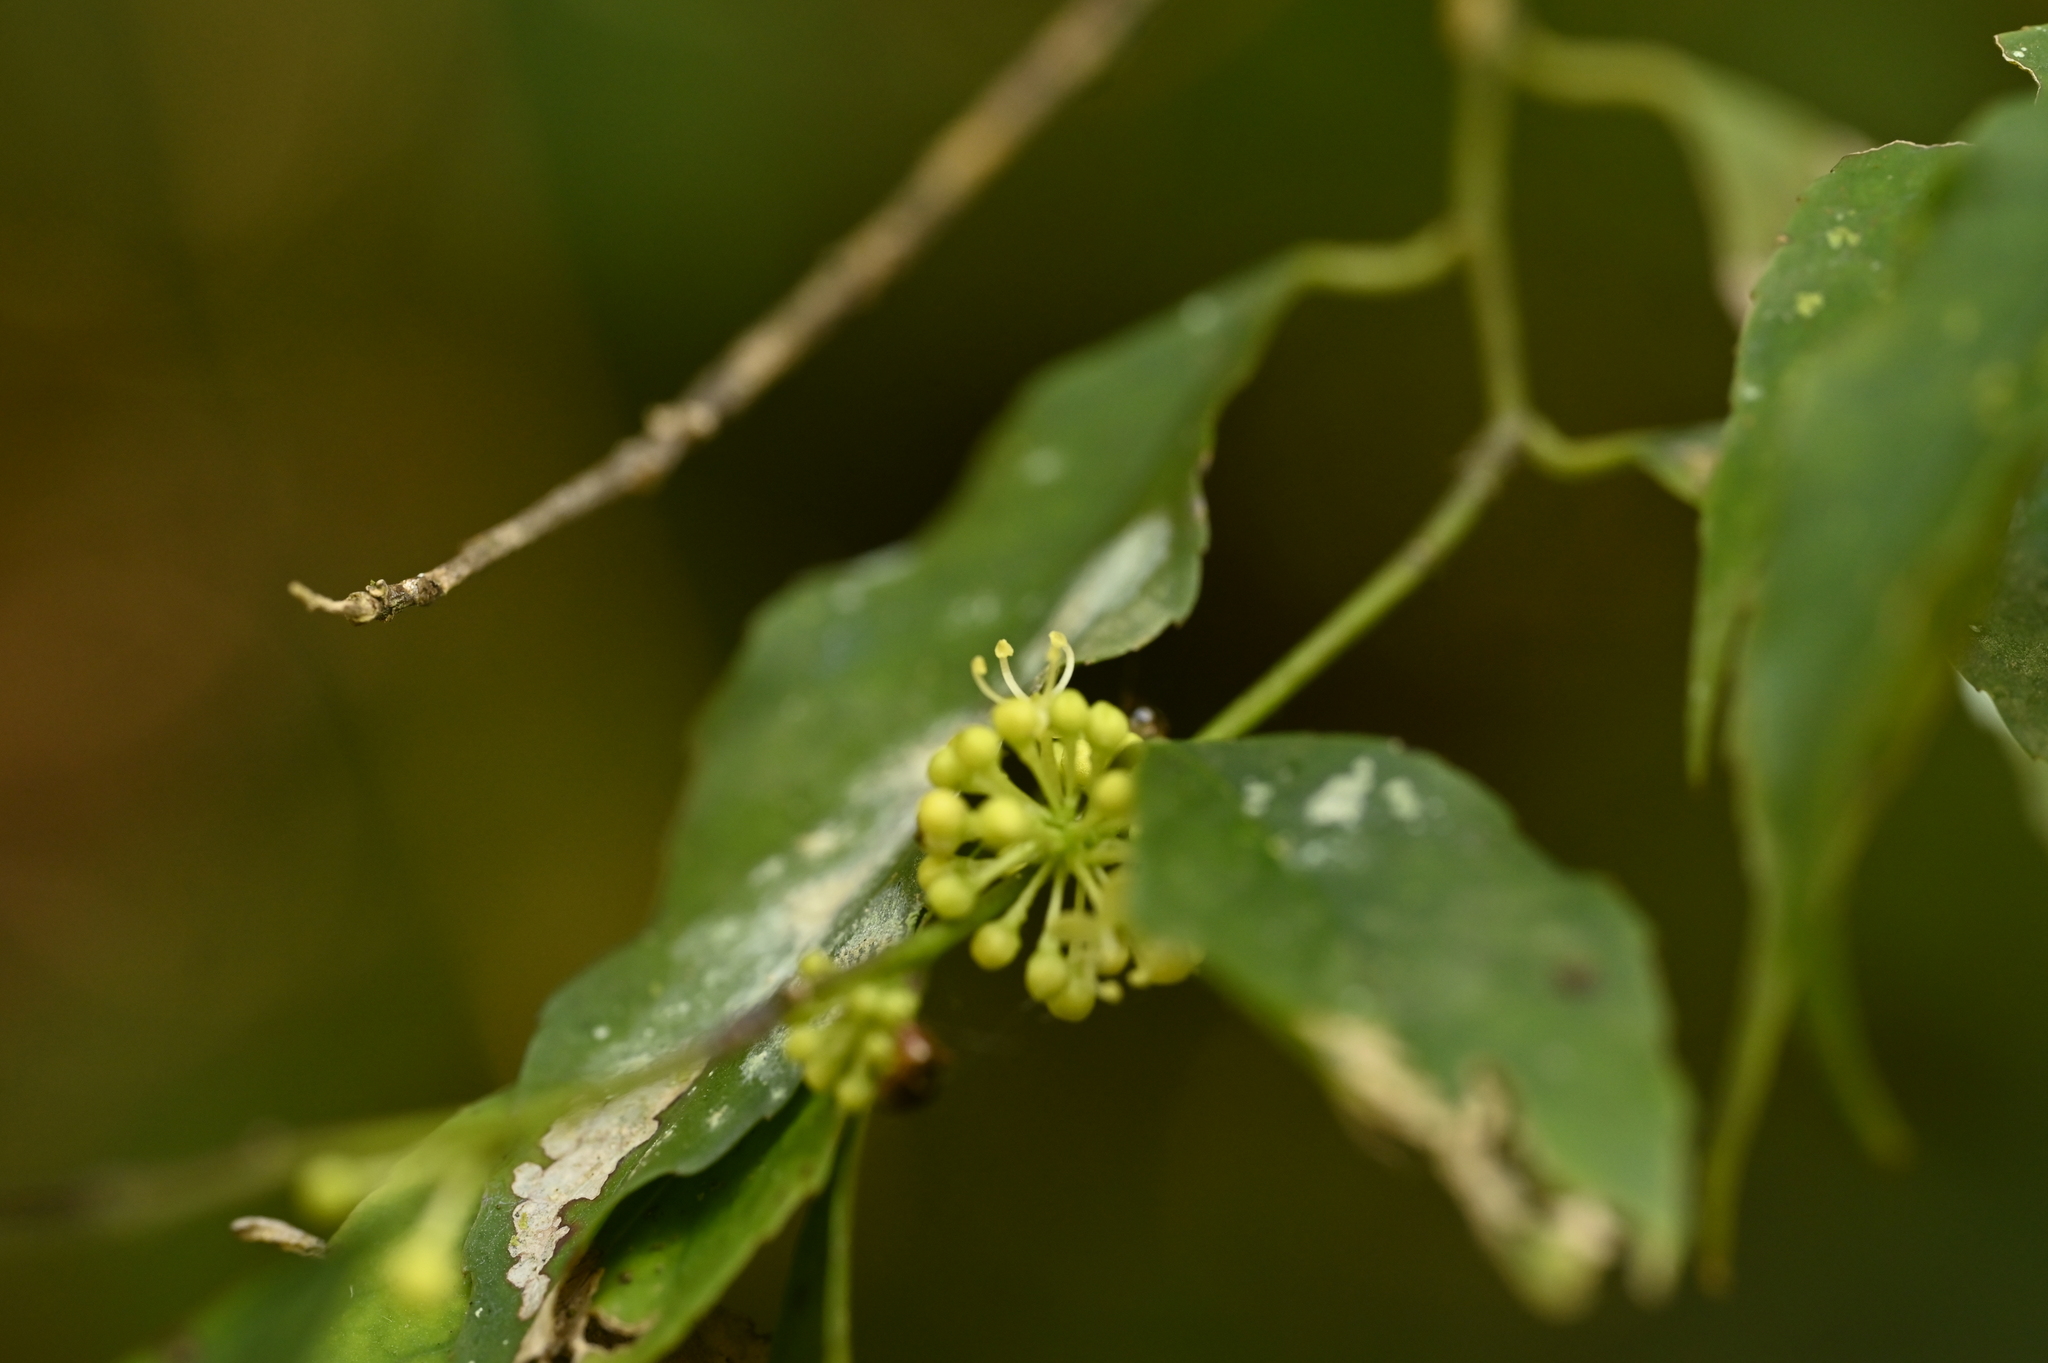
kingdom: Plantae
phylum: Tracheophyta
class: Magnoliopsida
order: Aquifoliales
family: Aquifoliaceae
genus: Ilex
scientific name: Ilex arisanensis
